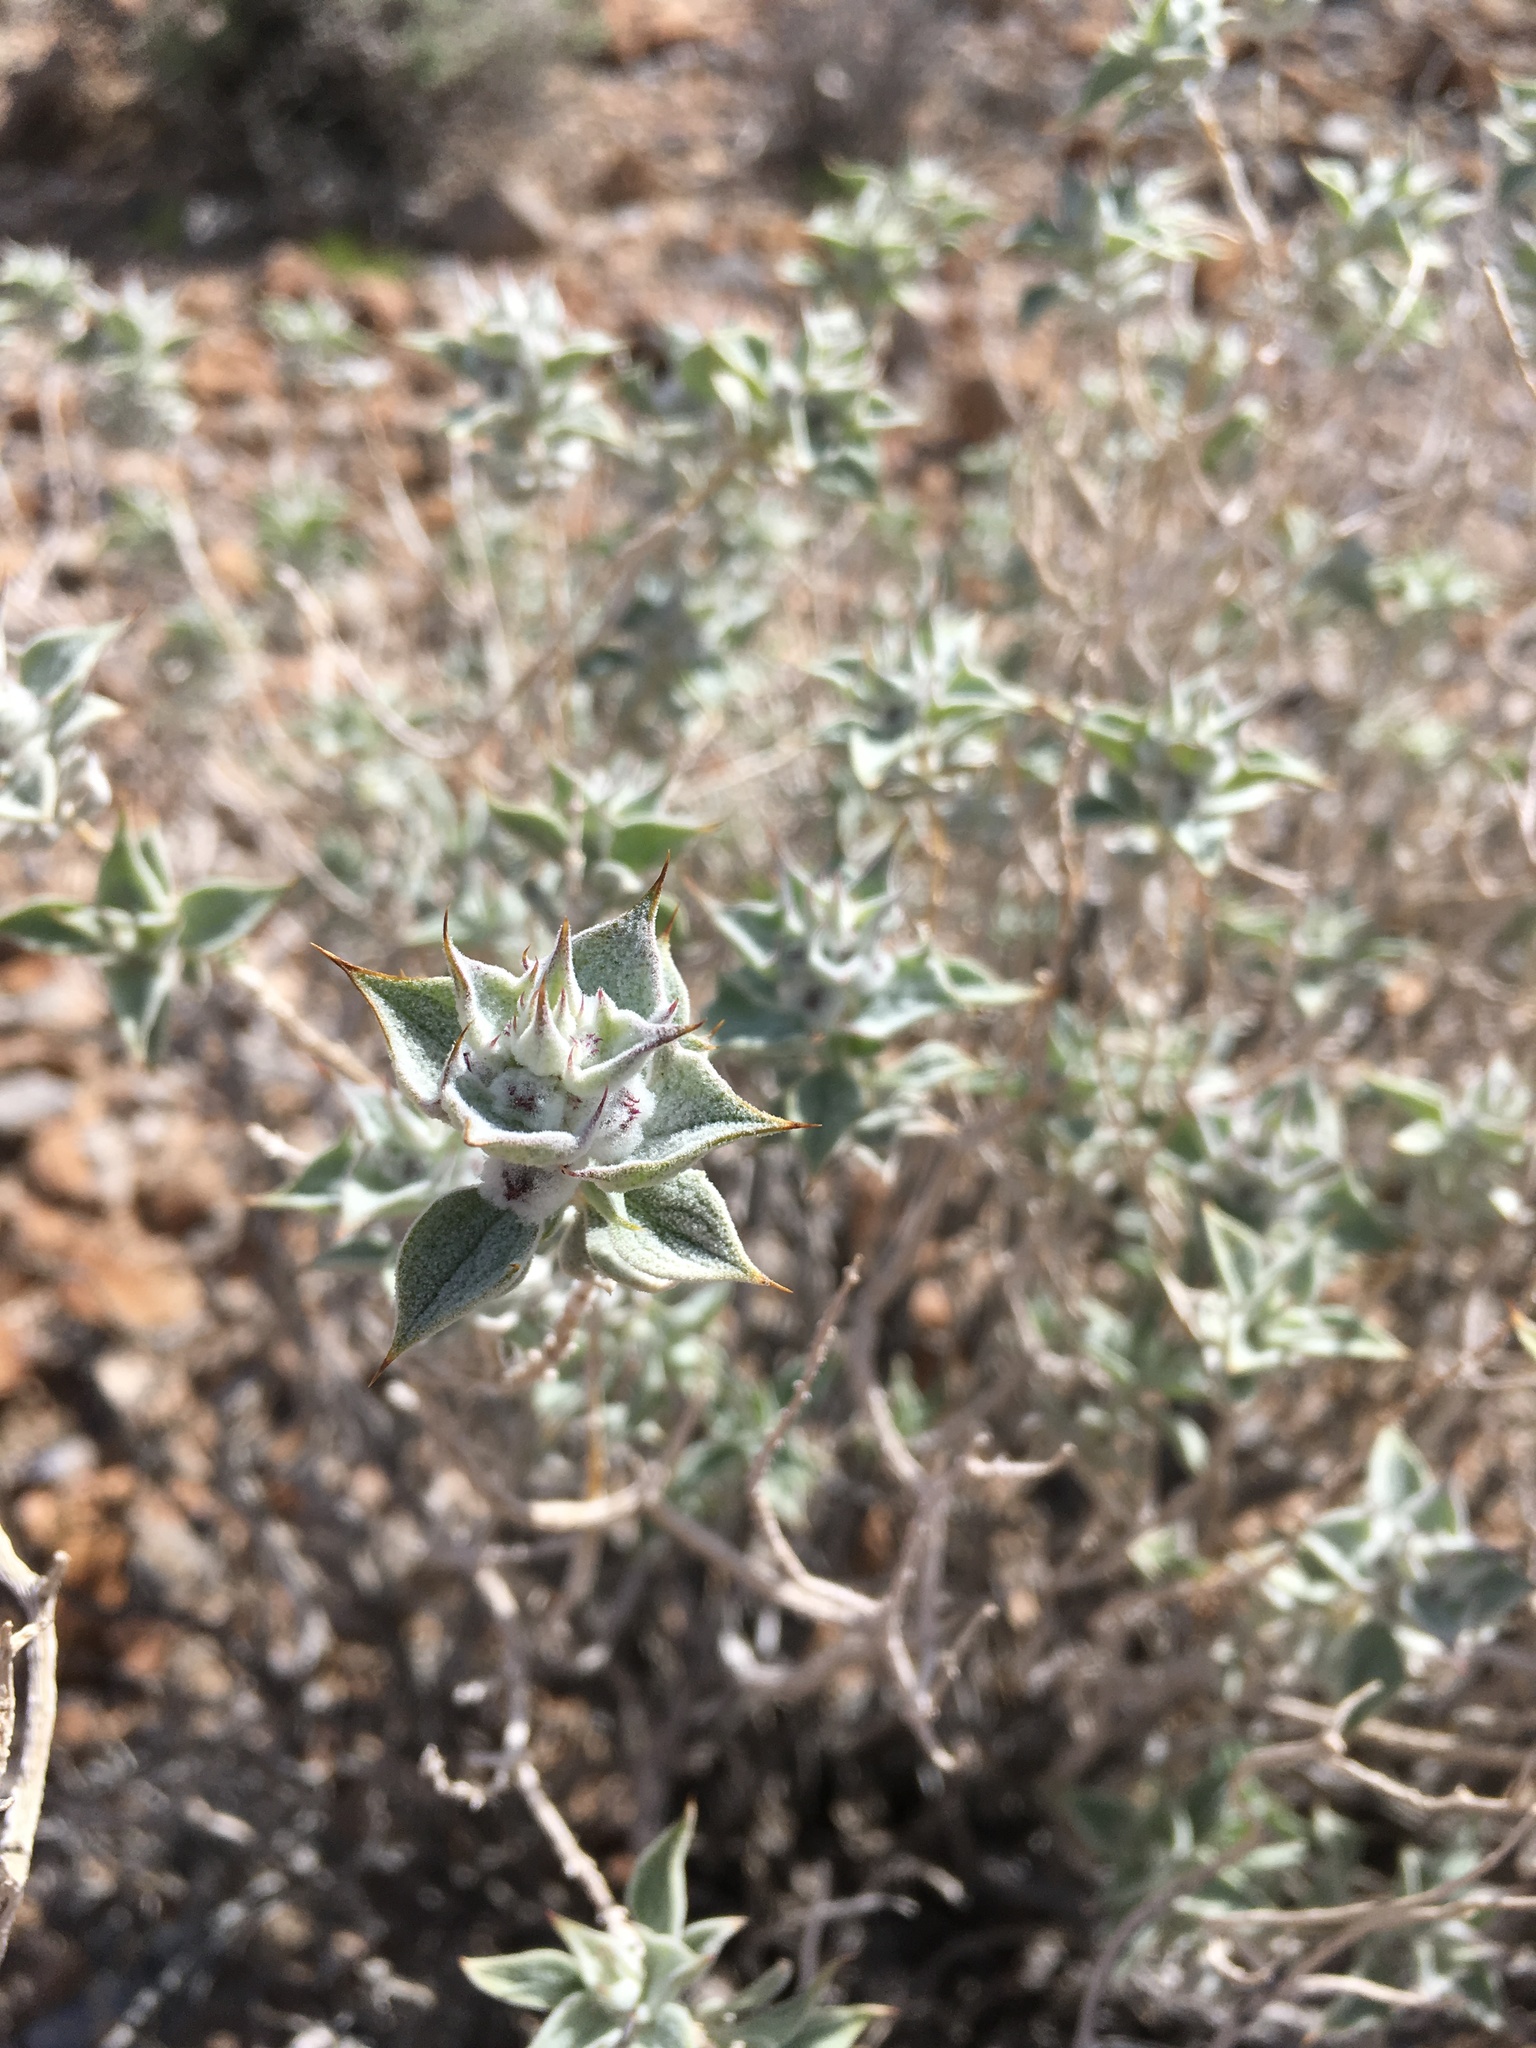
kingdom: Plantae
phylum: Tracheophyta
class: Magnoliopsida
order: Lamiales
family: Lamiaceae
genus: Salvia
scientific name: Salvia funerea
